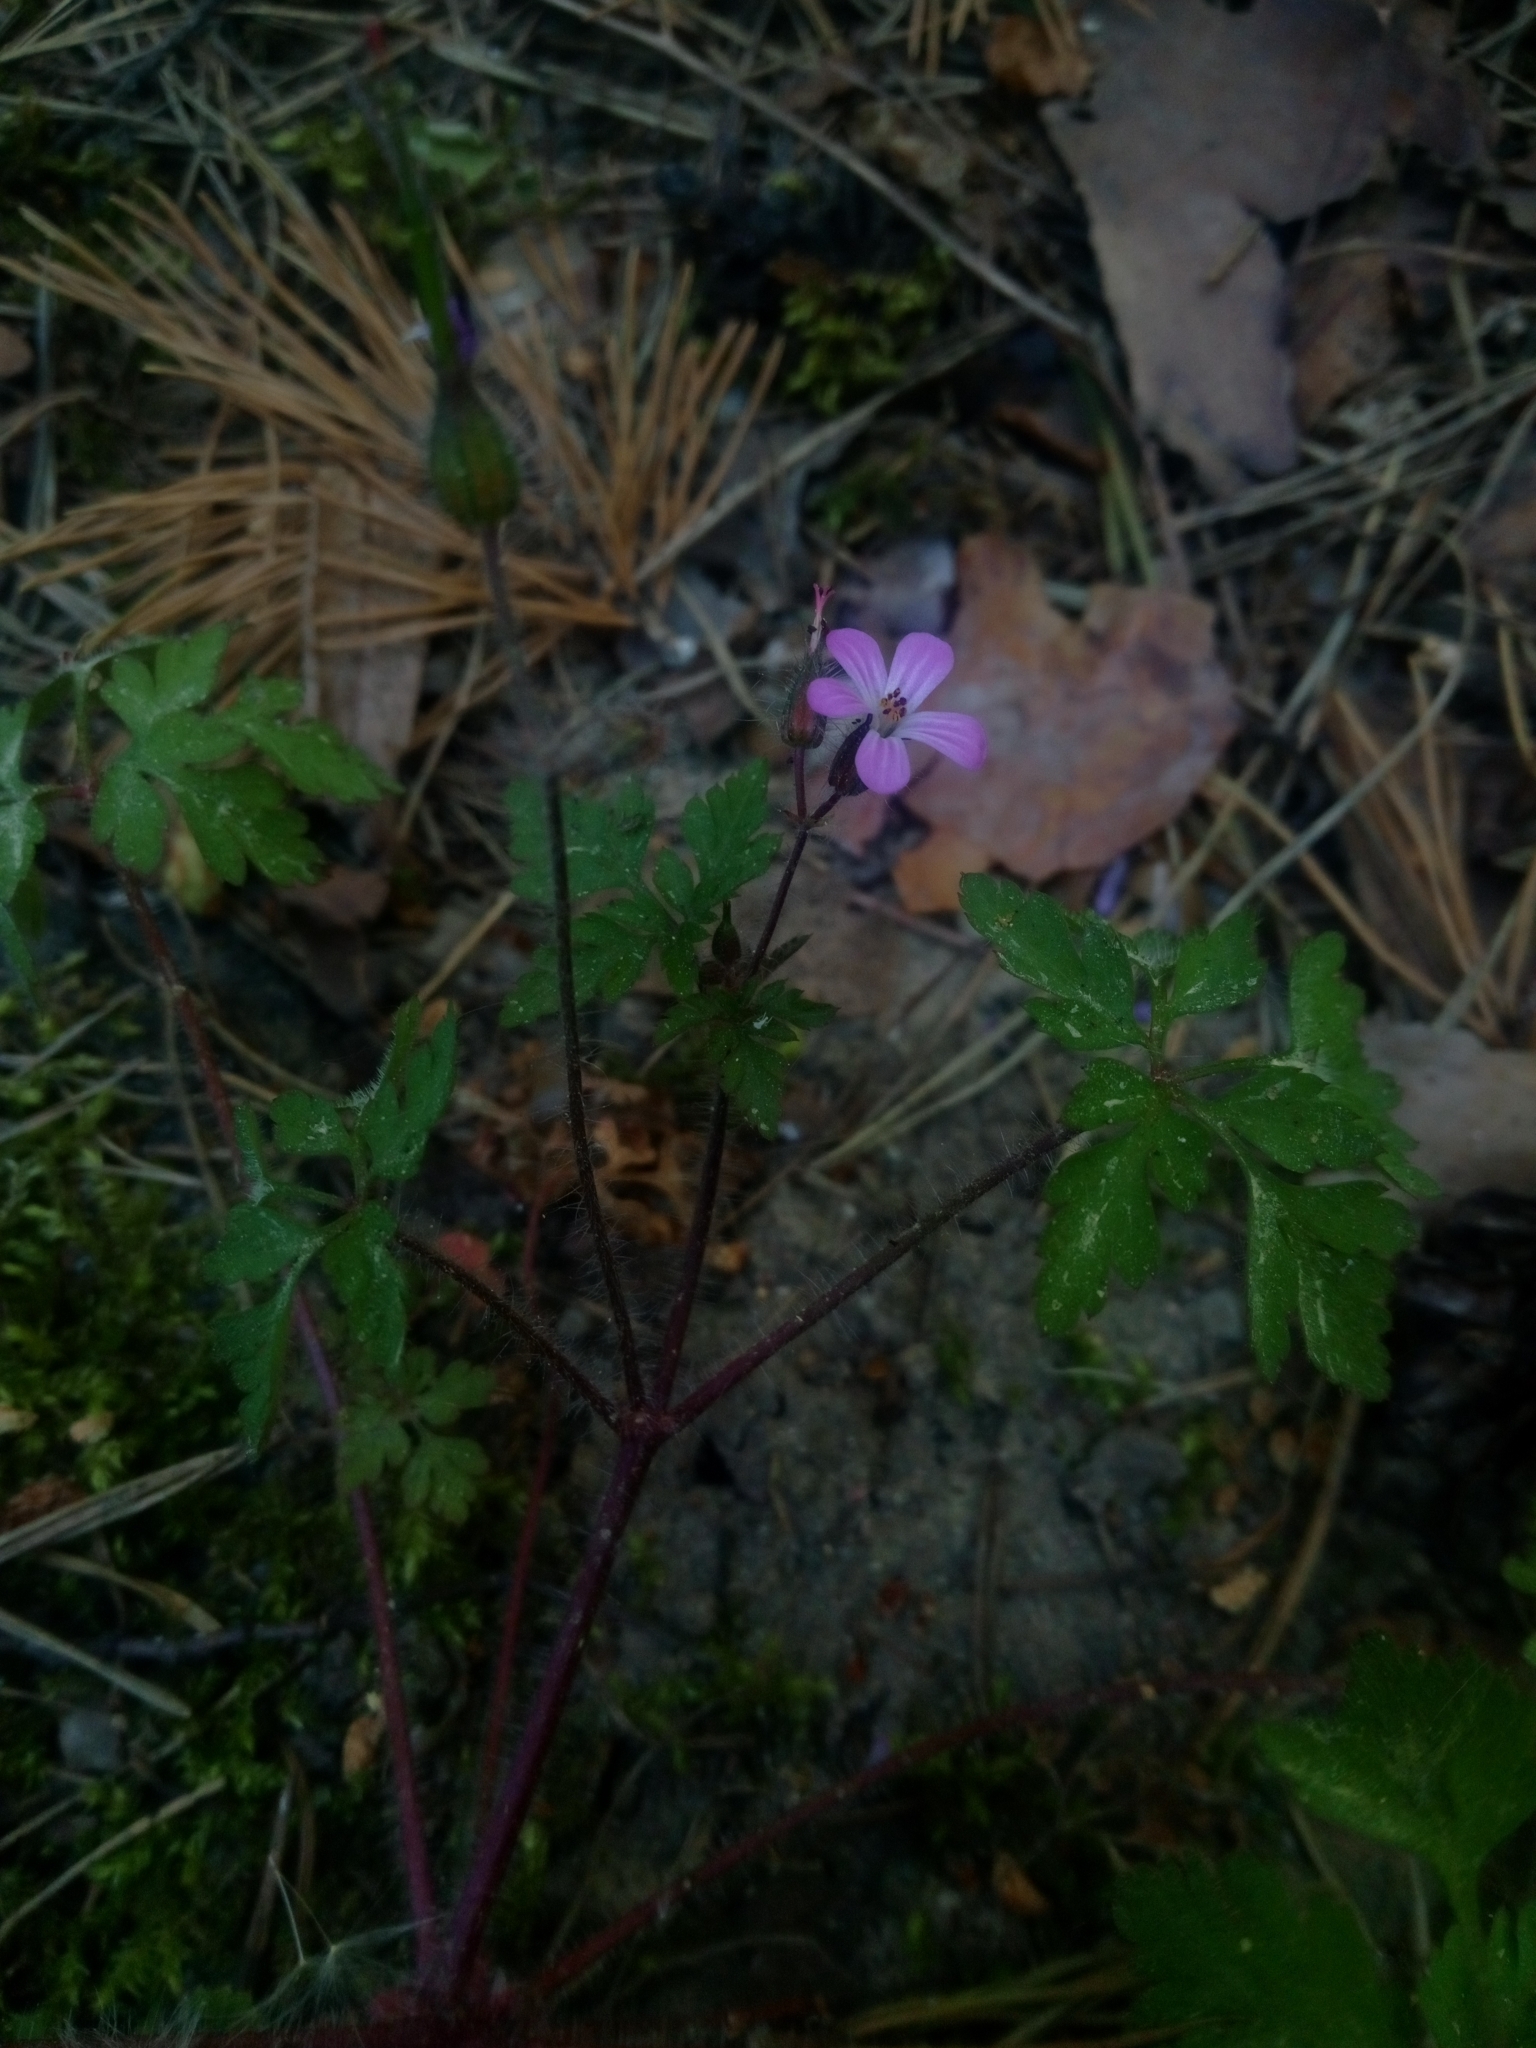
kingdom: Plantae
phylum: Tracheophyta
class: Magnoliopsida
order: Geraniales
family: Geraniaceae
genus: Geranium
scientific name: Geranium robertianum
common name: Herb-robert
